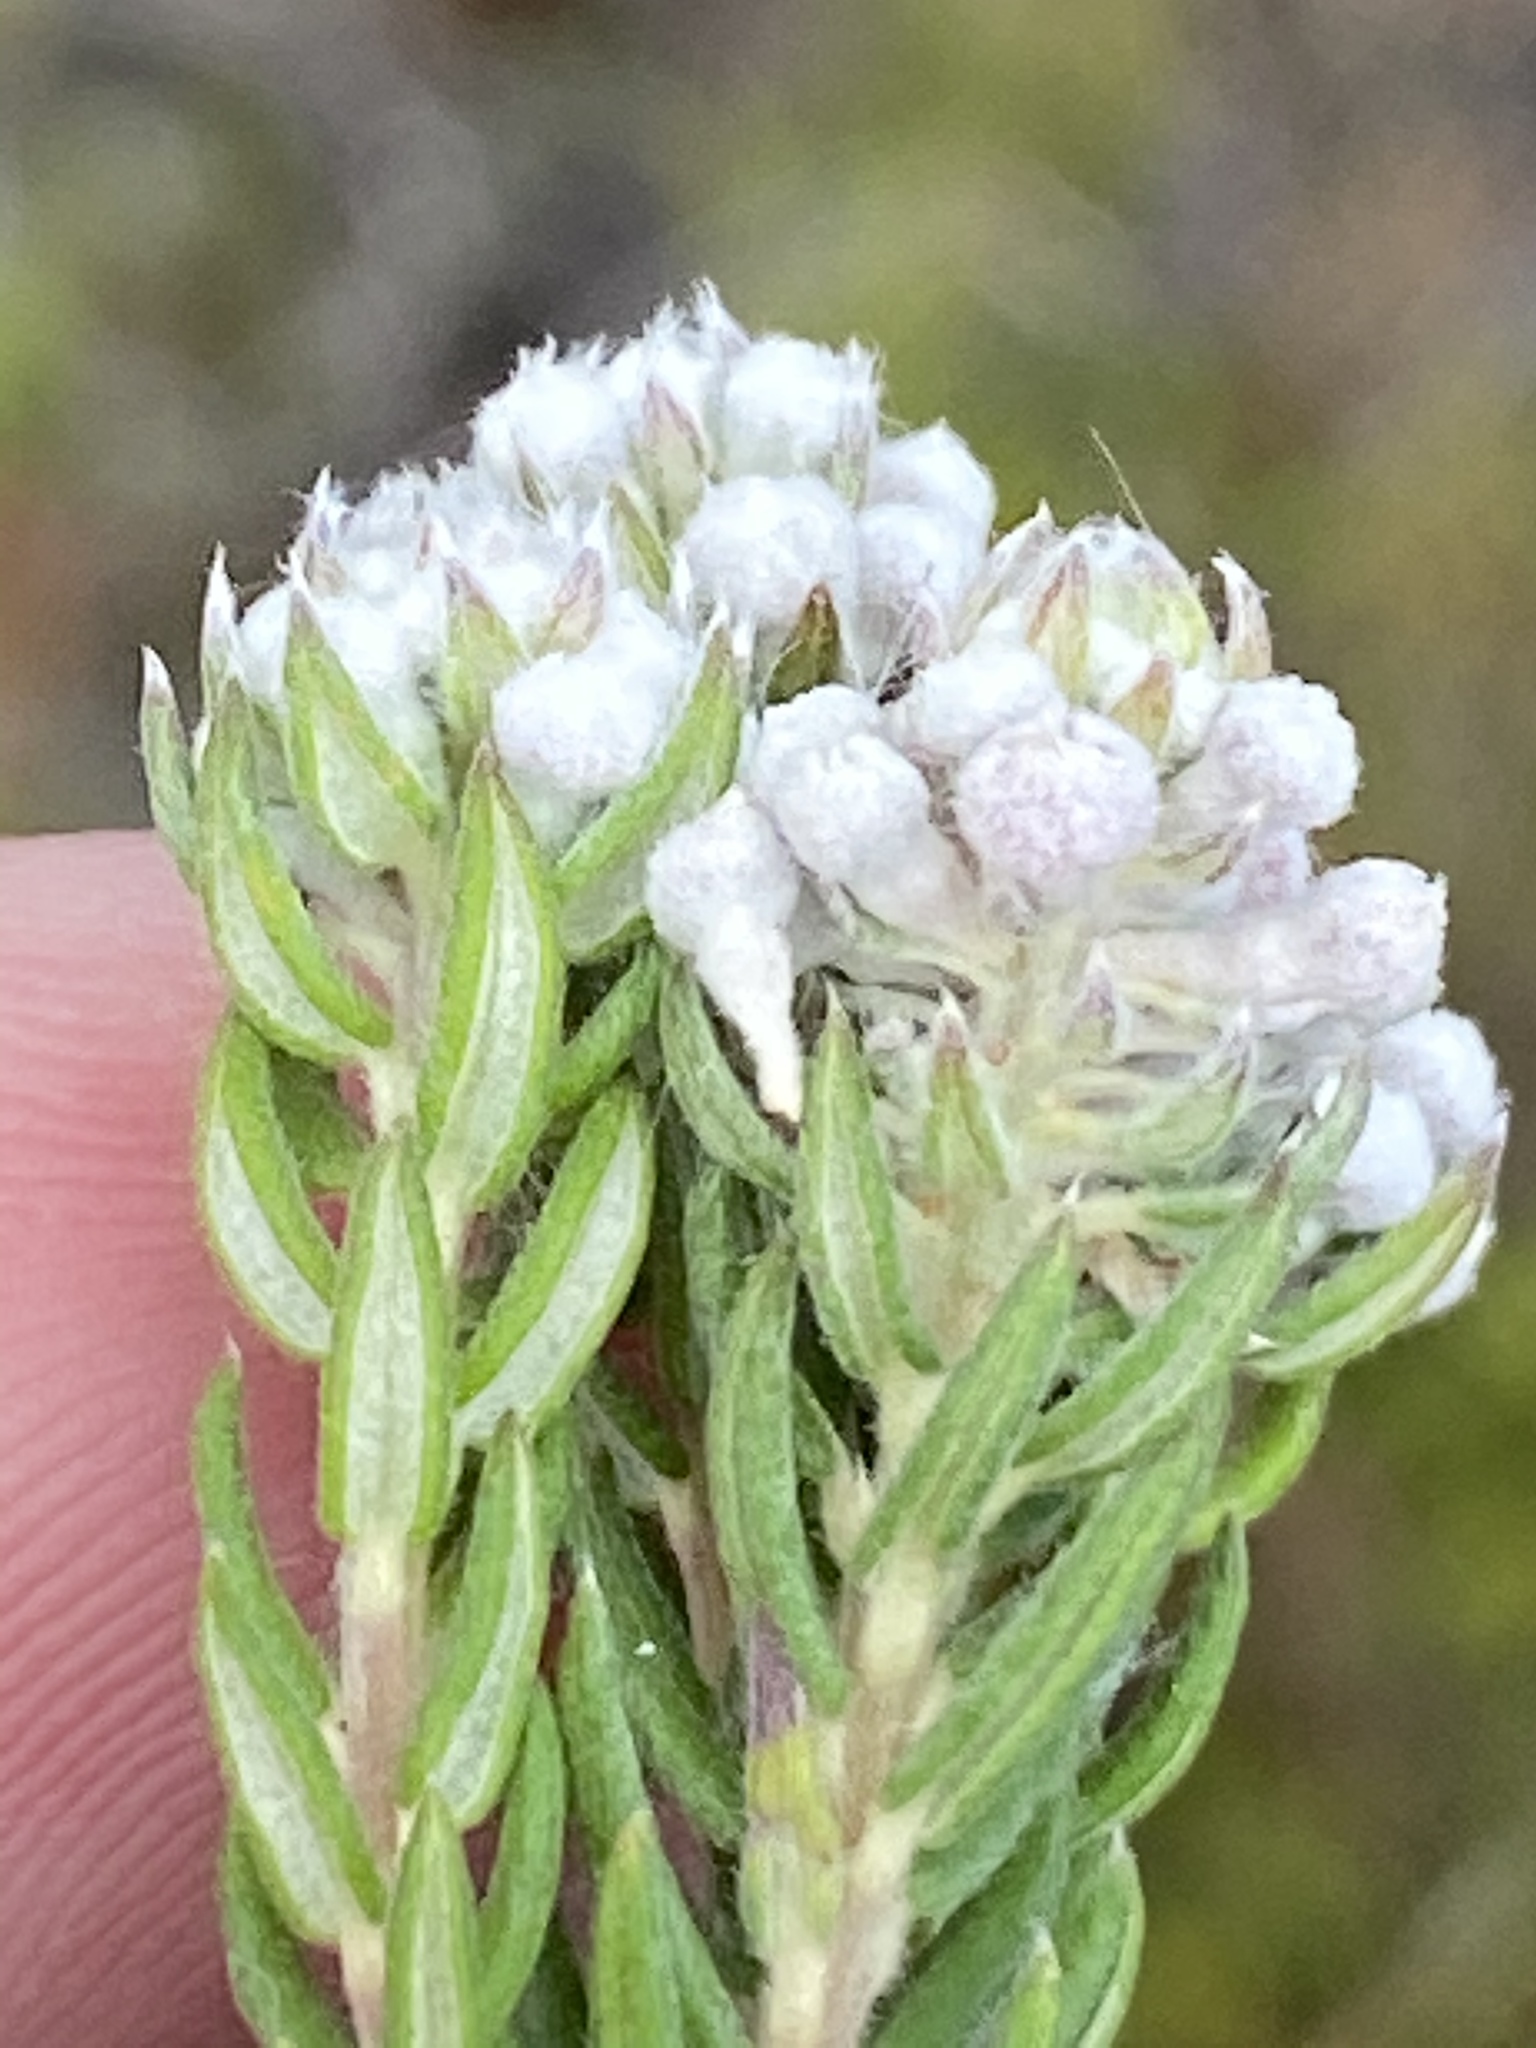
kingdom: Plantae
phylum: Tracheophyta
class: Magnoliopsida
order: Rosales
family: Rhamnaceae
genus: Phylica
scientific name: Phylica pinea
